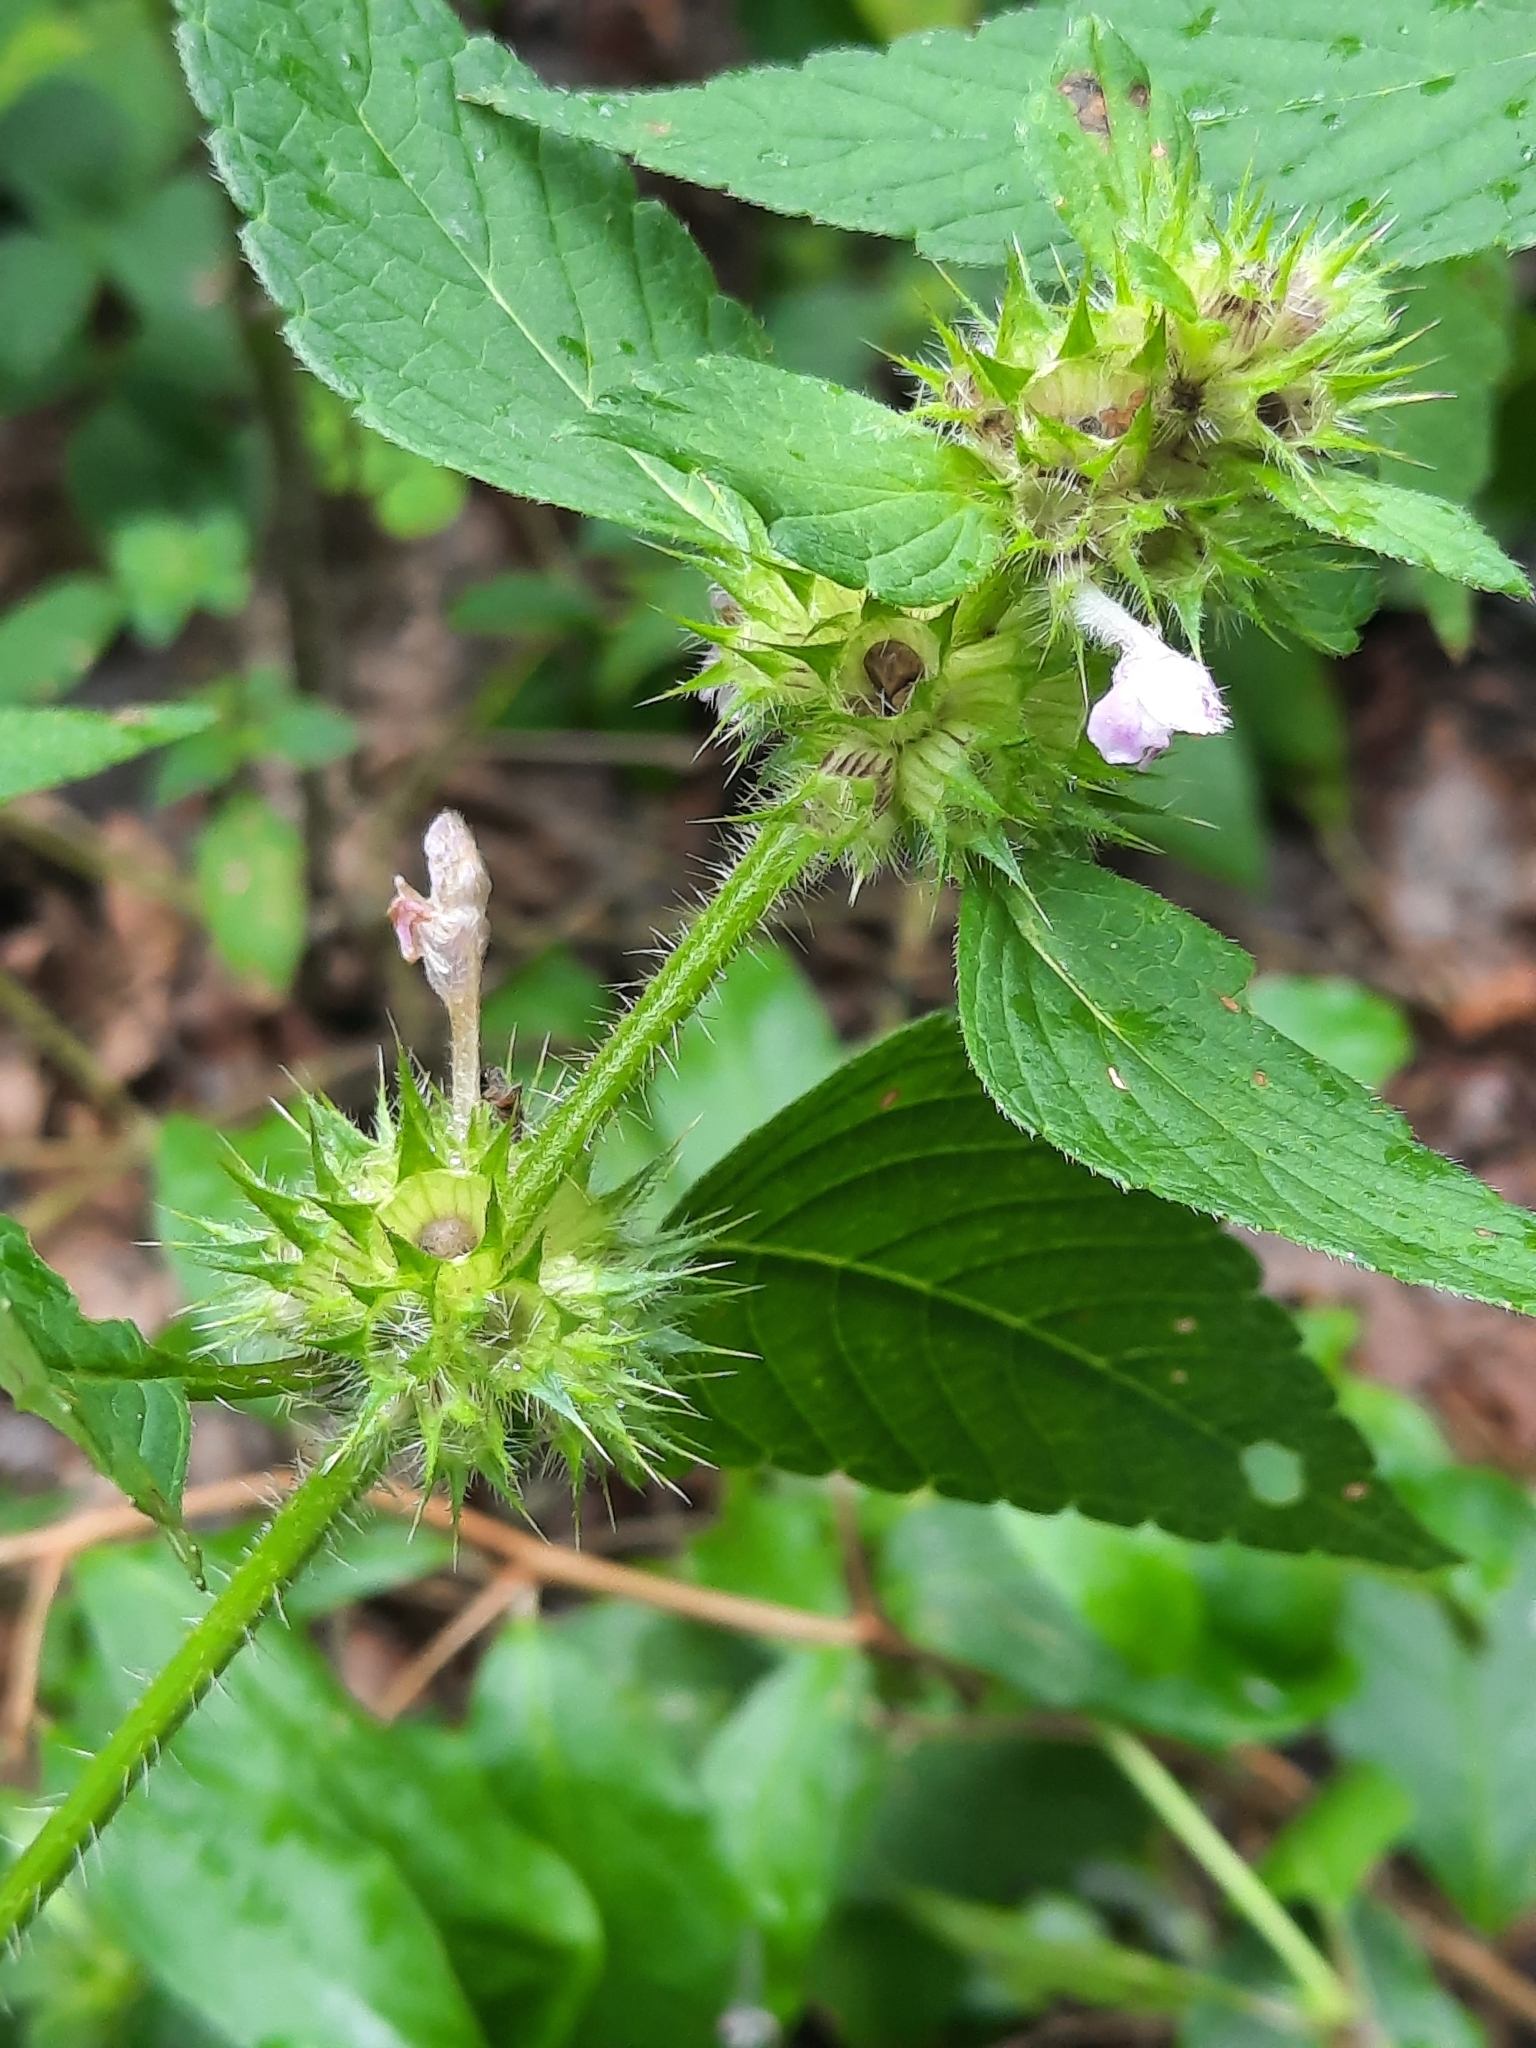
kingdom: Plantae
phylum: Tracheophyta
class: Magnoliopsida
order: Lamiales
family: Lamiaceae
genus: Galeopsis
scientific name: Galeopsis
